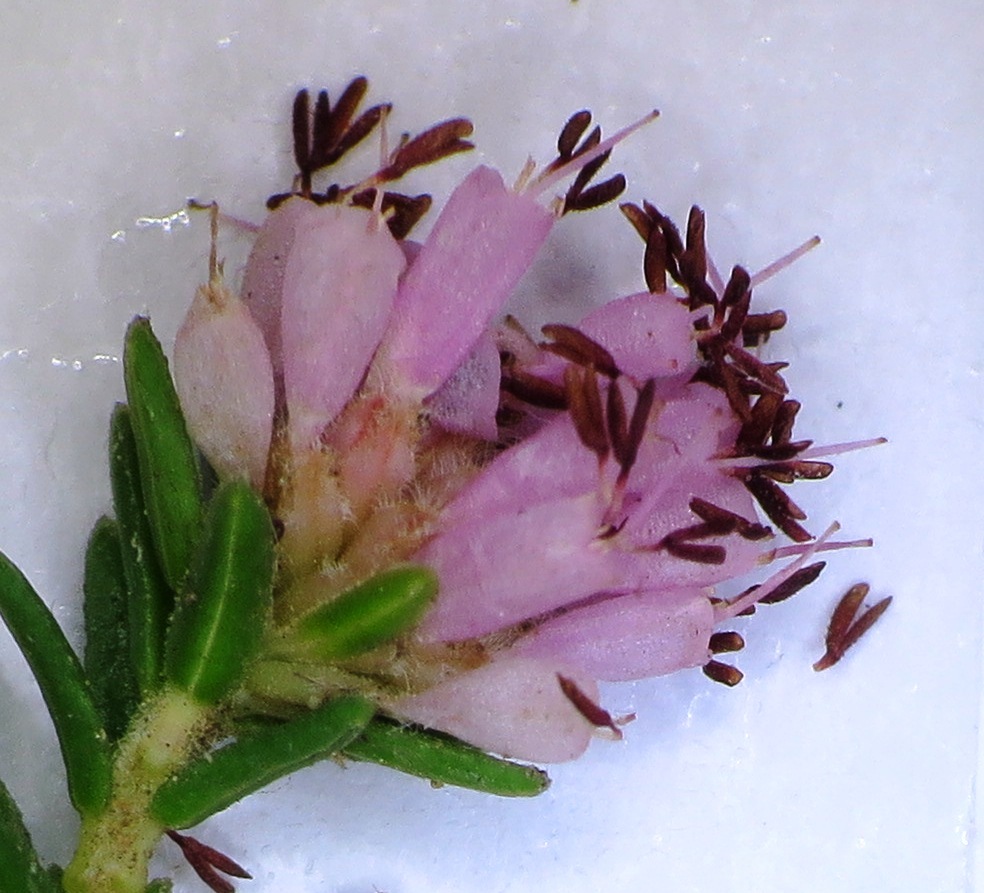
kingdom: Plantae
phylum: Tracheophyta
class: Magnoliopsida
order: Ericales
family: Ericaceae
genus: Erica
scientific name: Erica labialis
